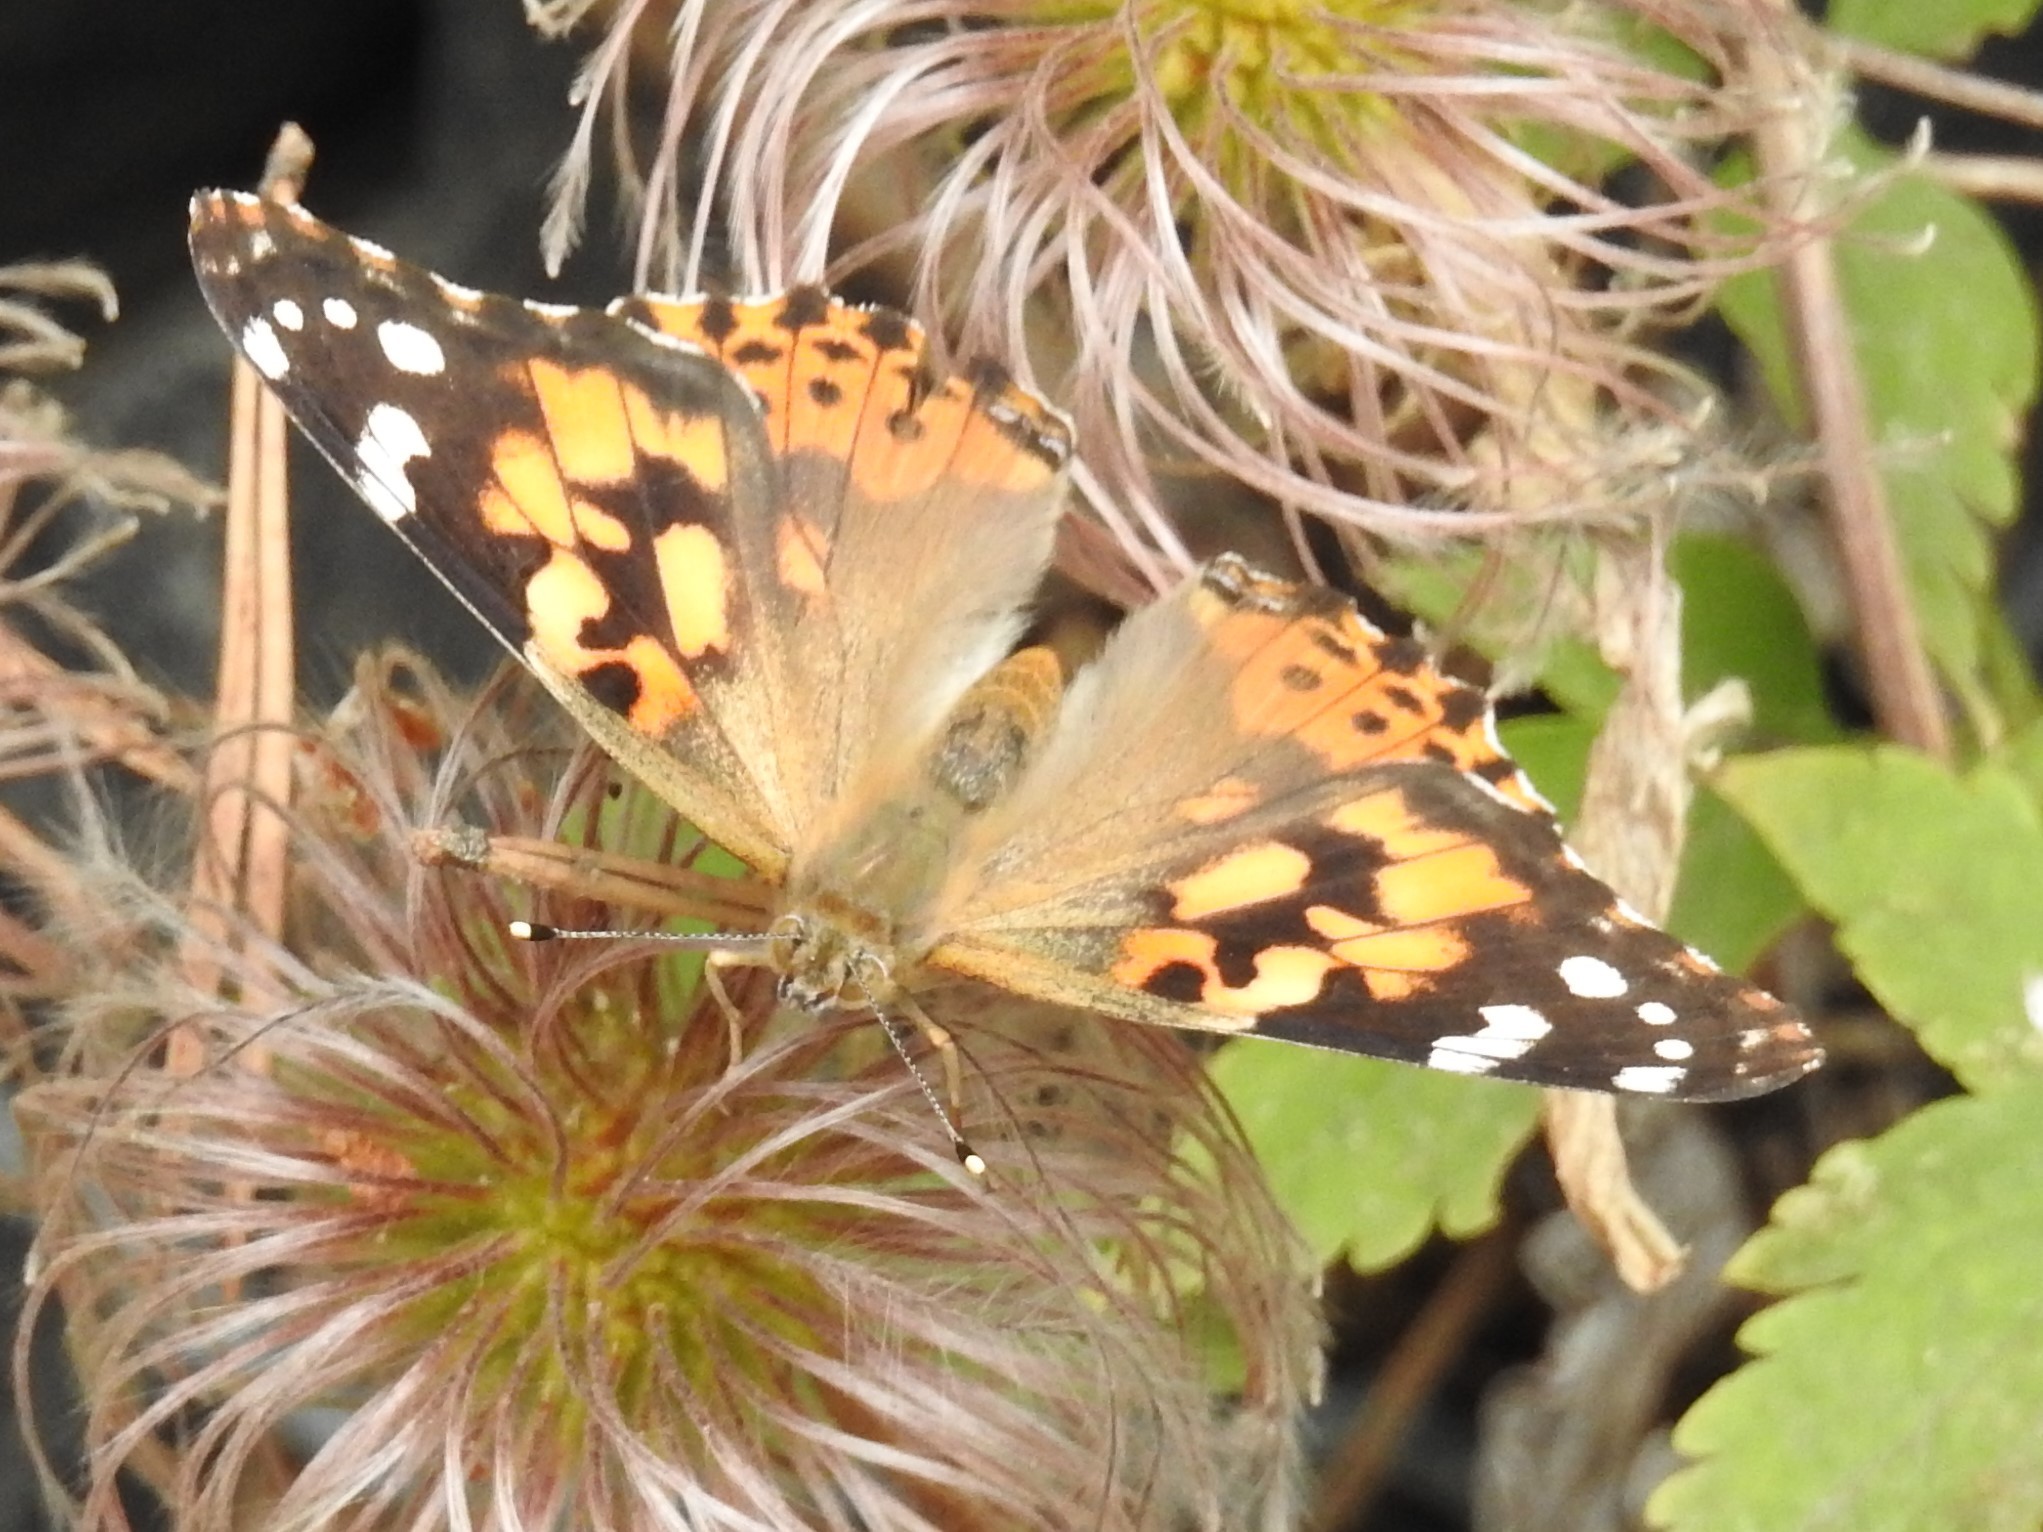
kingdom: Animalia
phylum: Arthropoda
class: Insecta
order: Lepidoptera
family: Nymphalidae
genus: Vanessa
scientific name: Vanessa cardui
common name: Painted lady
